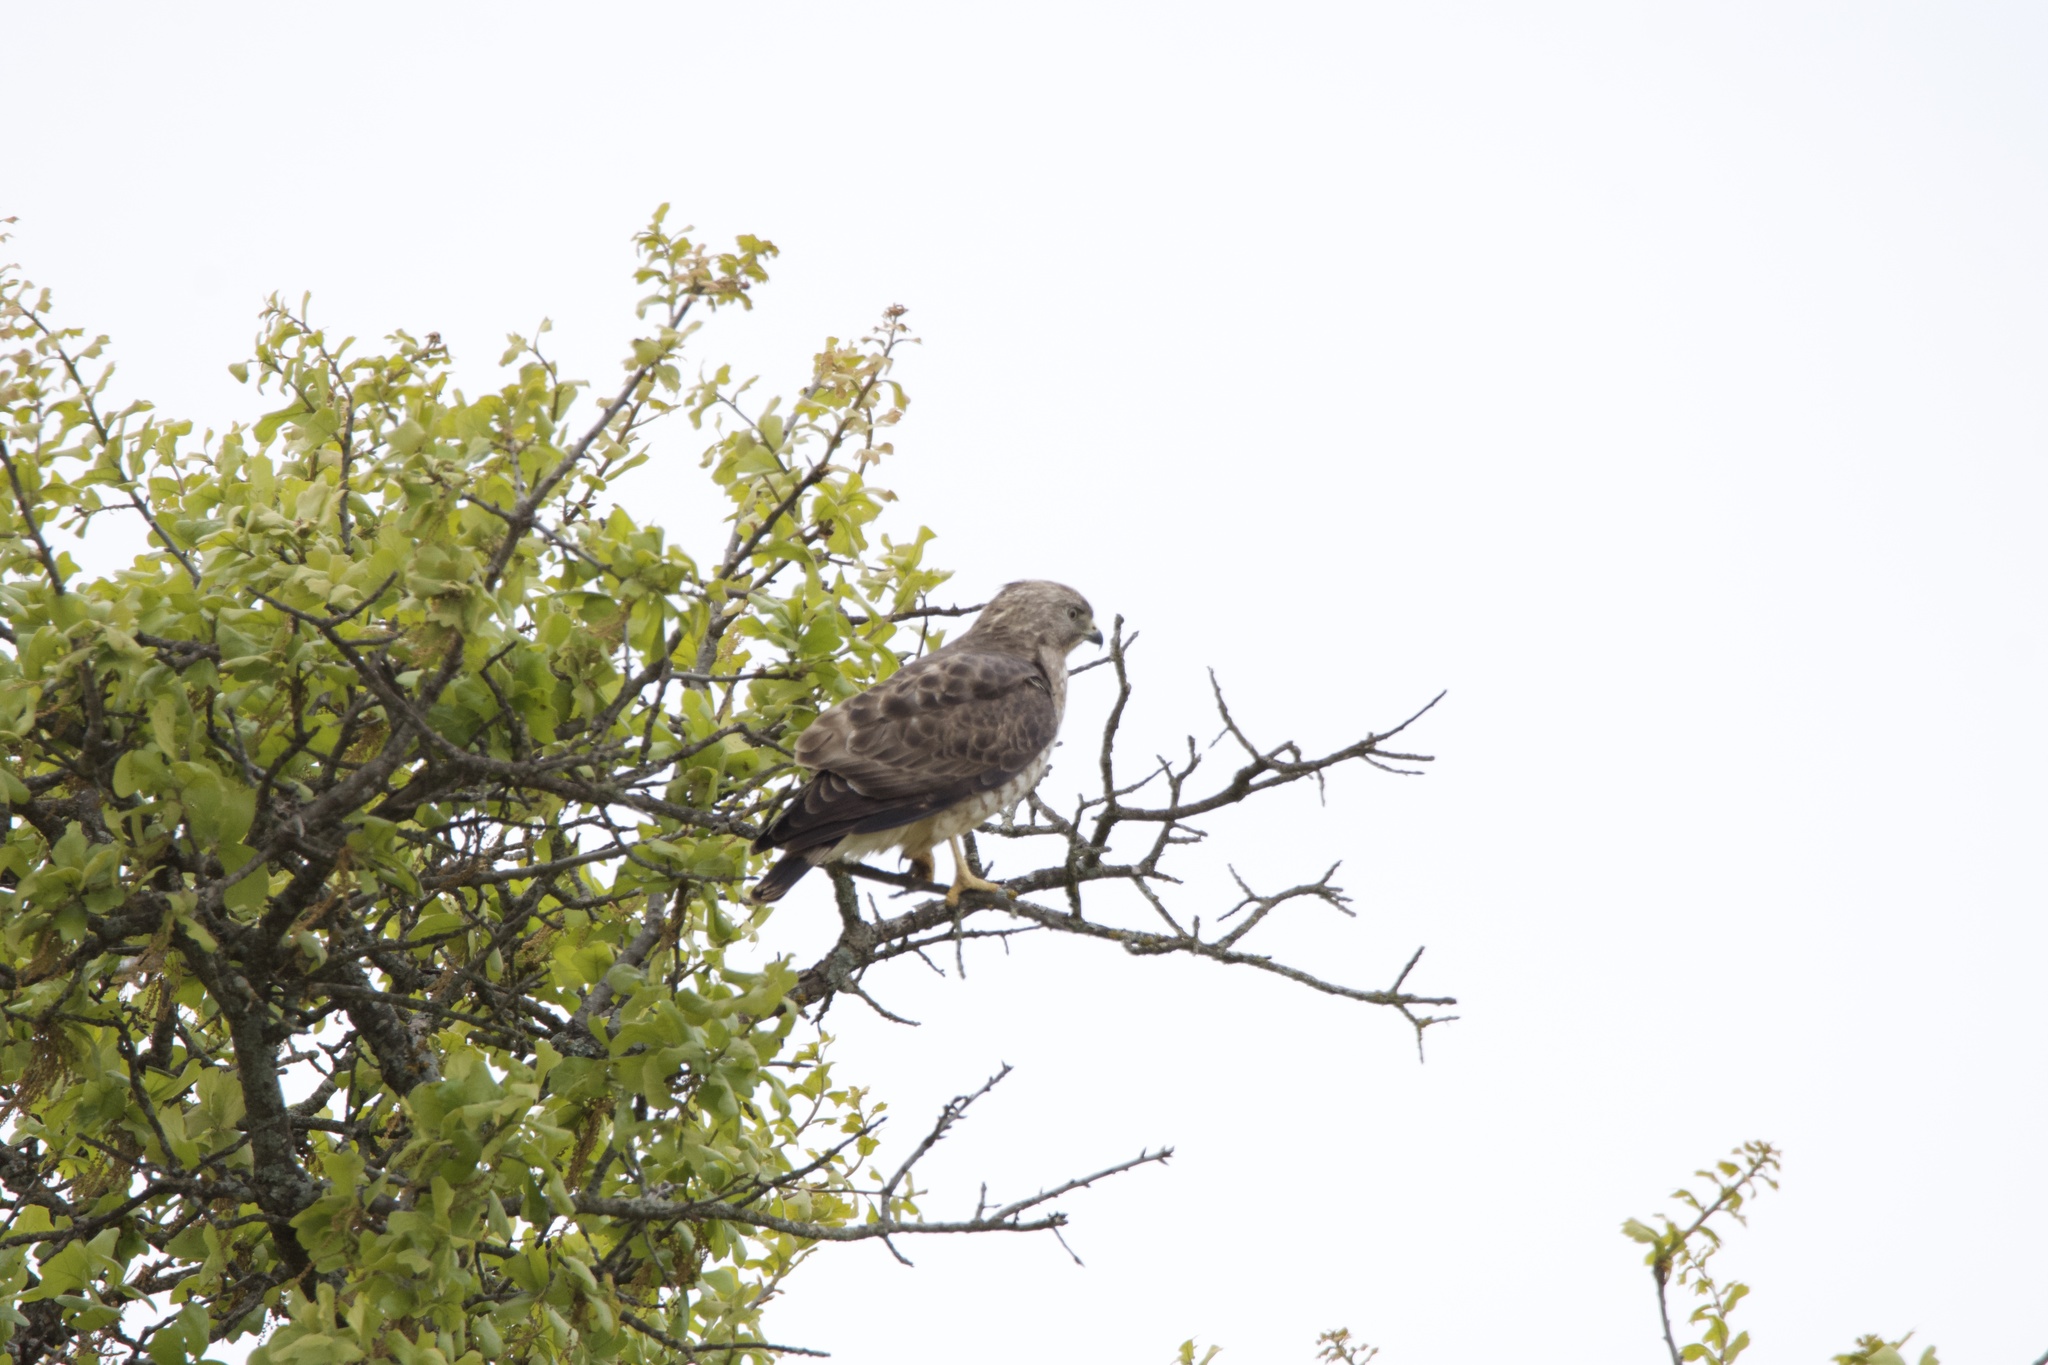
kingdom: Animalia
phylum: Chordata
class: Aves
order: Accipitriformes
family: Accipitridae
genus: Buteo
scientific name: Buteo platypterus
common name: Broad-winged hawk
